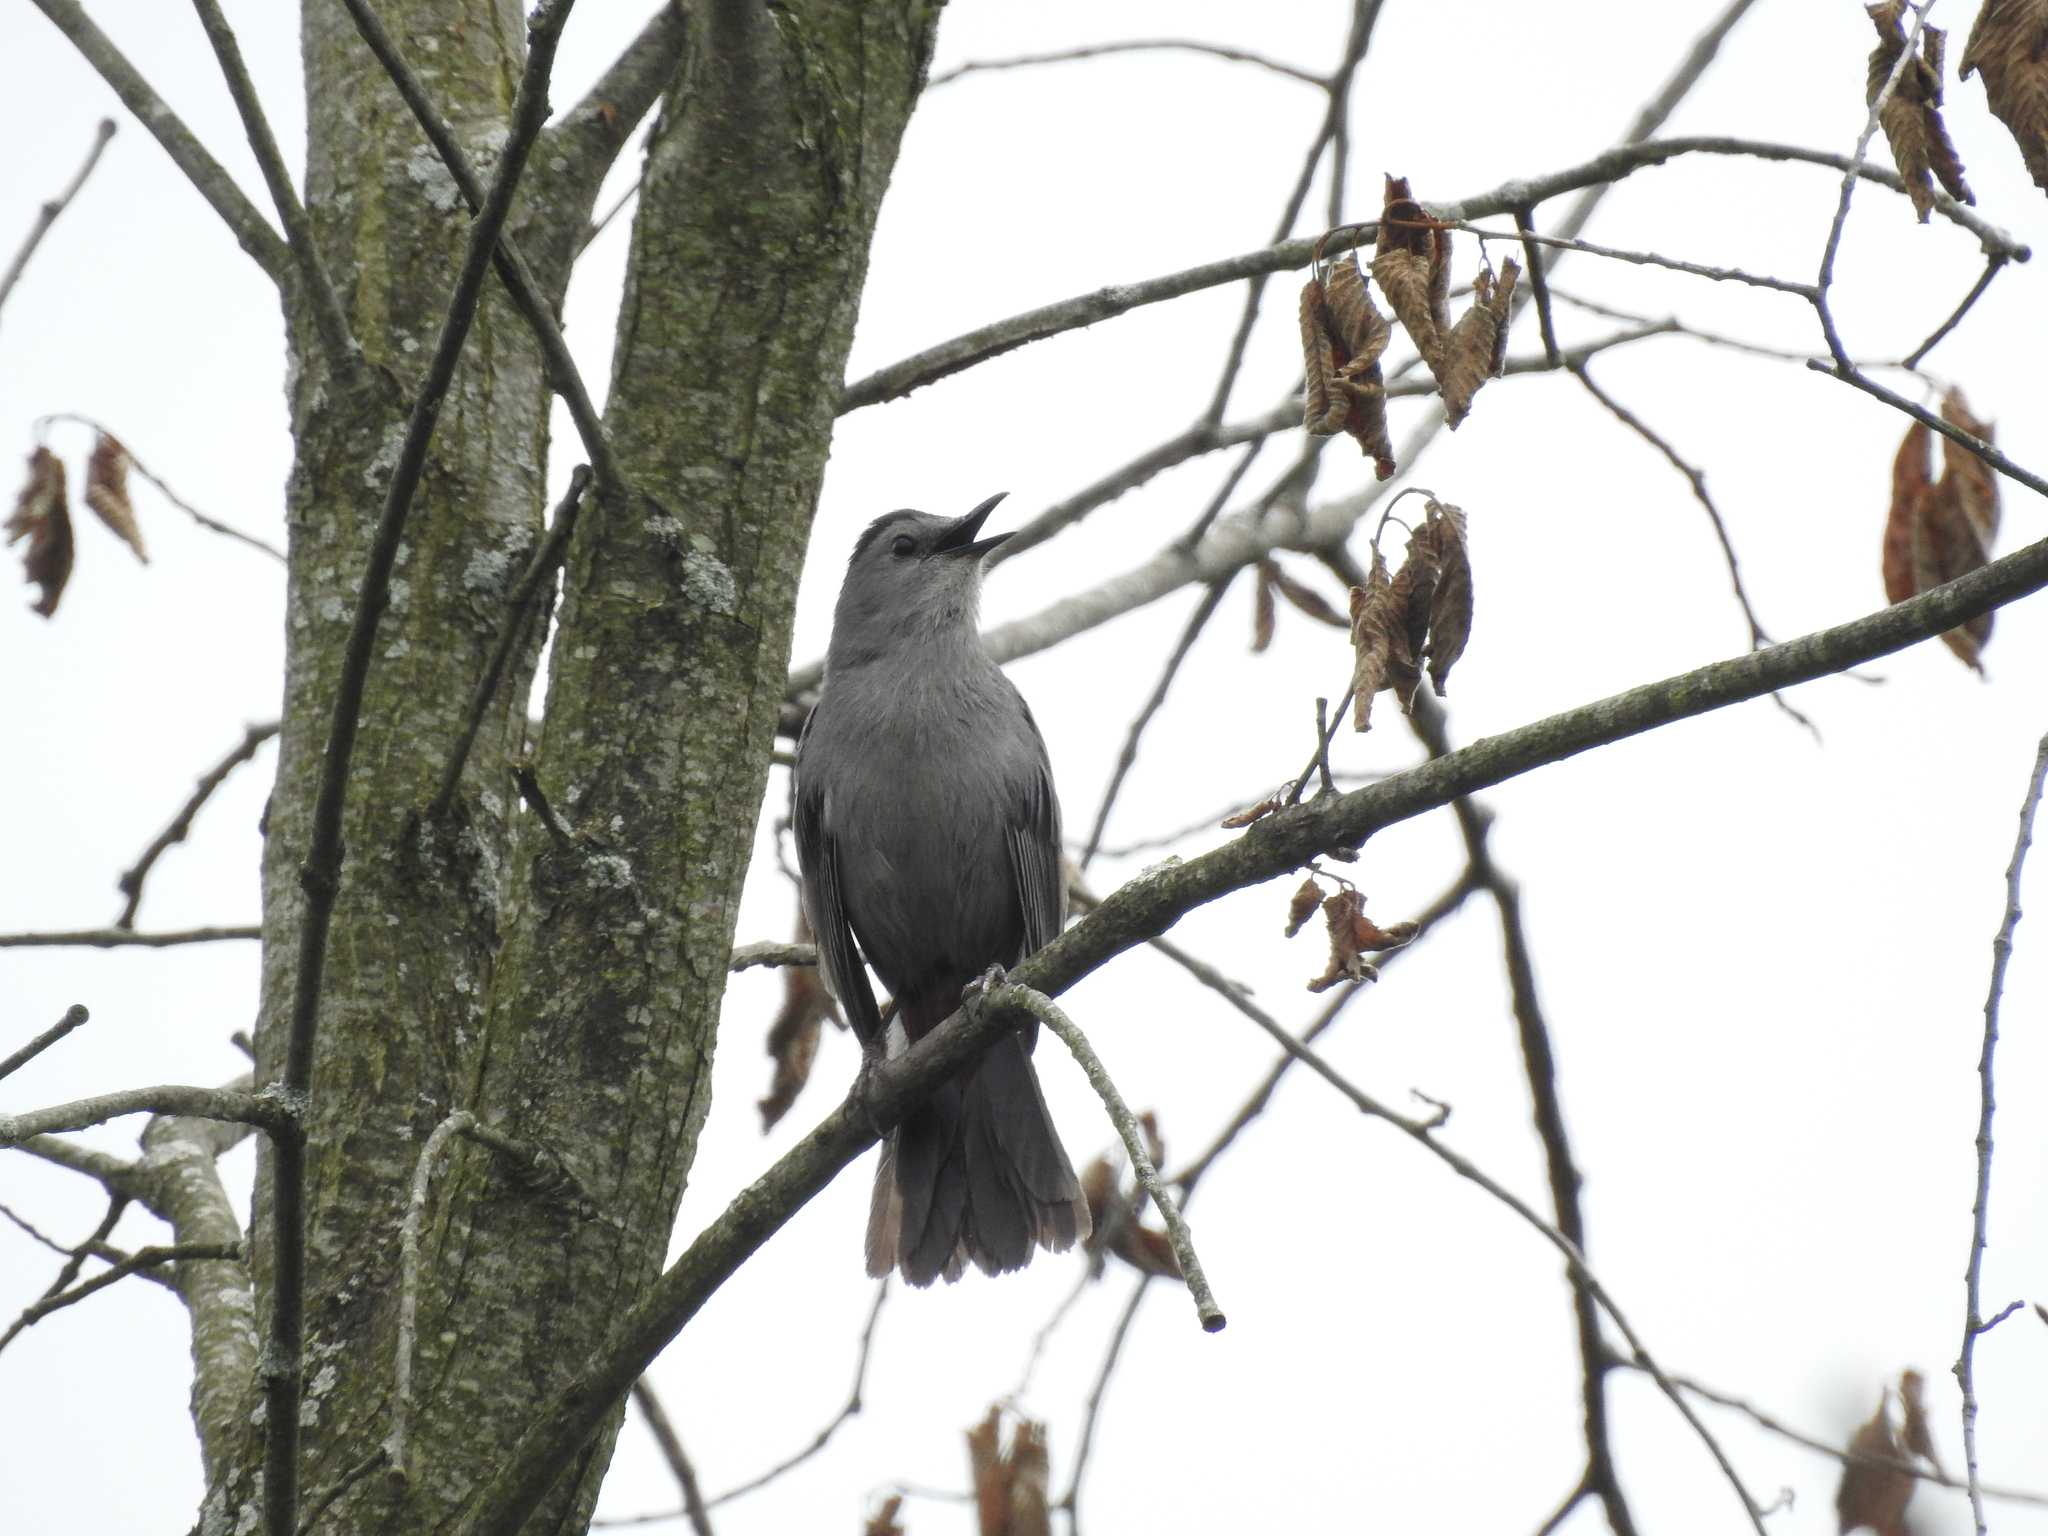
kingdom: Animalia
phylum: Chordata
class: Aves
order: Passeriformes
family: Mimidae
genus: Dumetella
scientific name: Dumetella carolinensis
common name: Gray catbird
